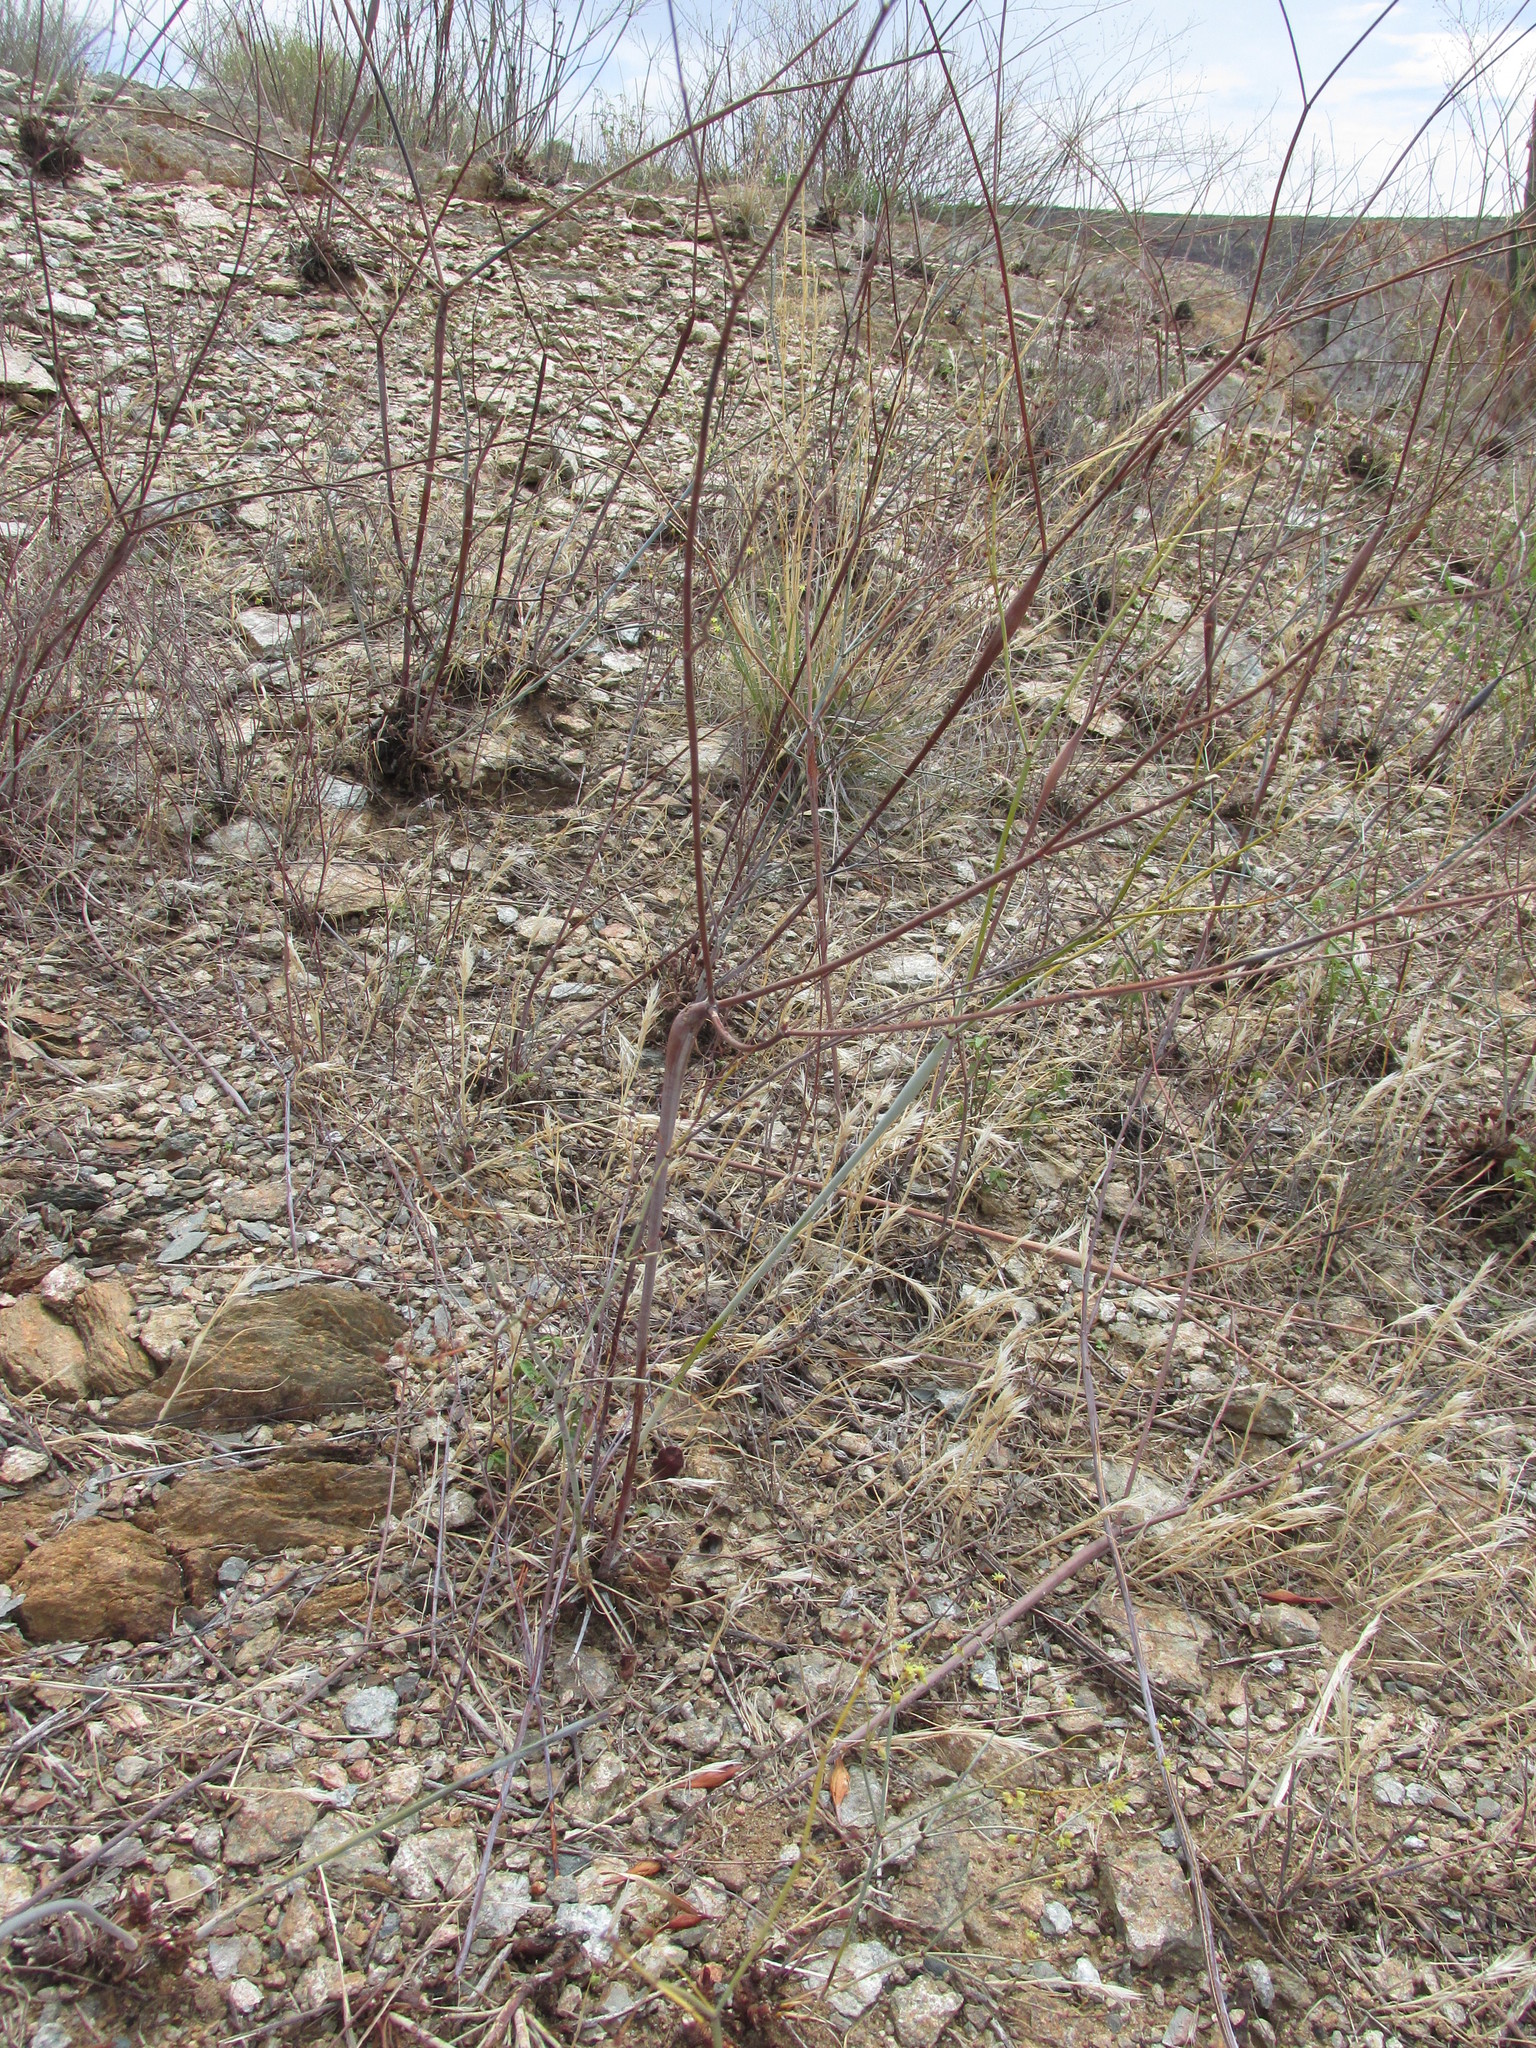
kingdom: Plantae
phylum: Tracheophyta
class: Magnoliopsida
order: Caryophyllales
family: Polygonaceae
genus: Eriogonum
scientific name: Eriogonum inflatum
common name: Desert trumpet
